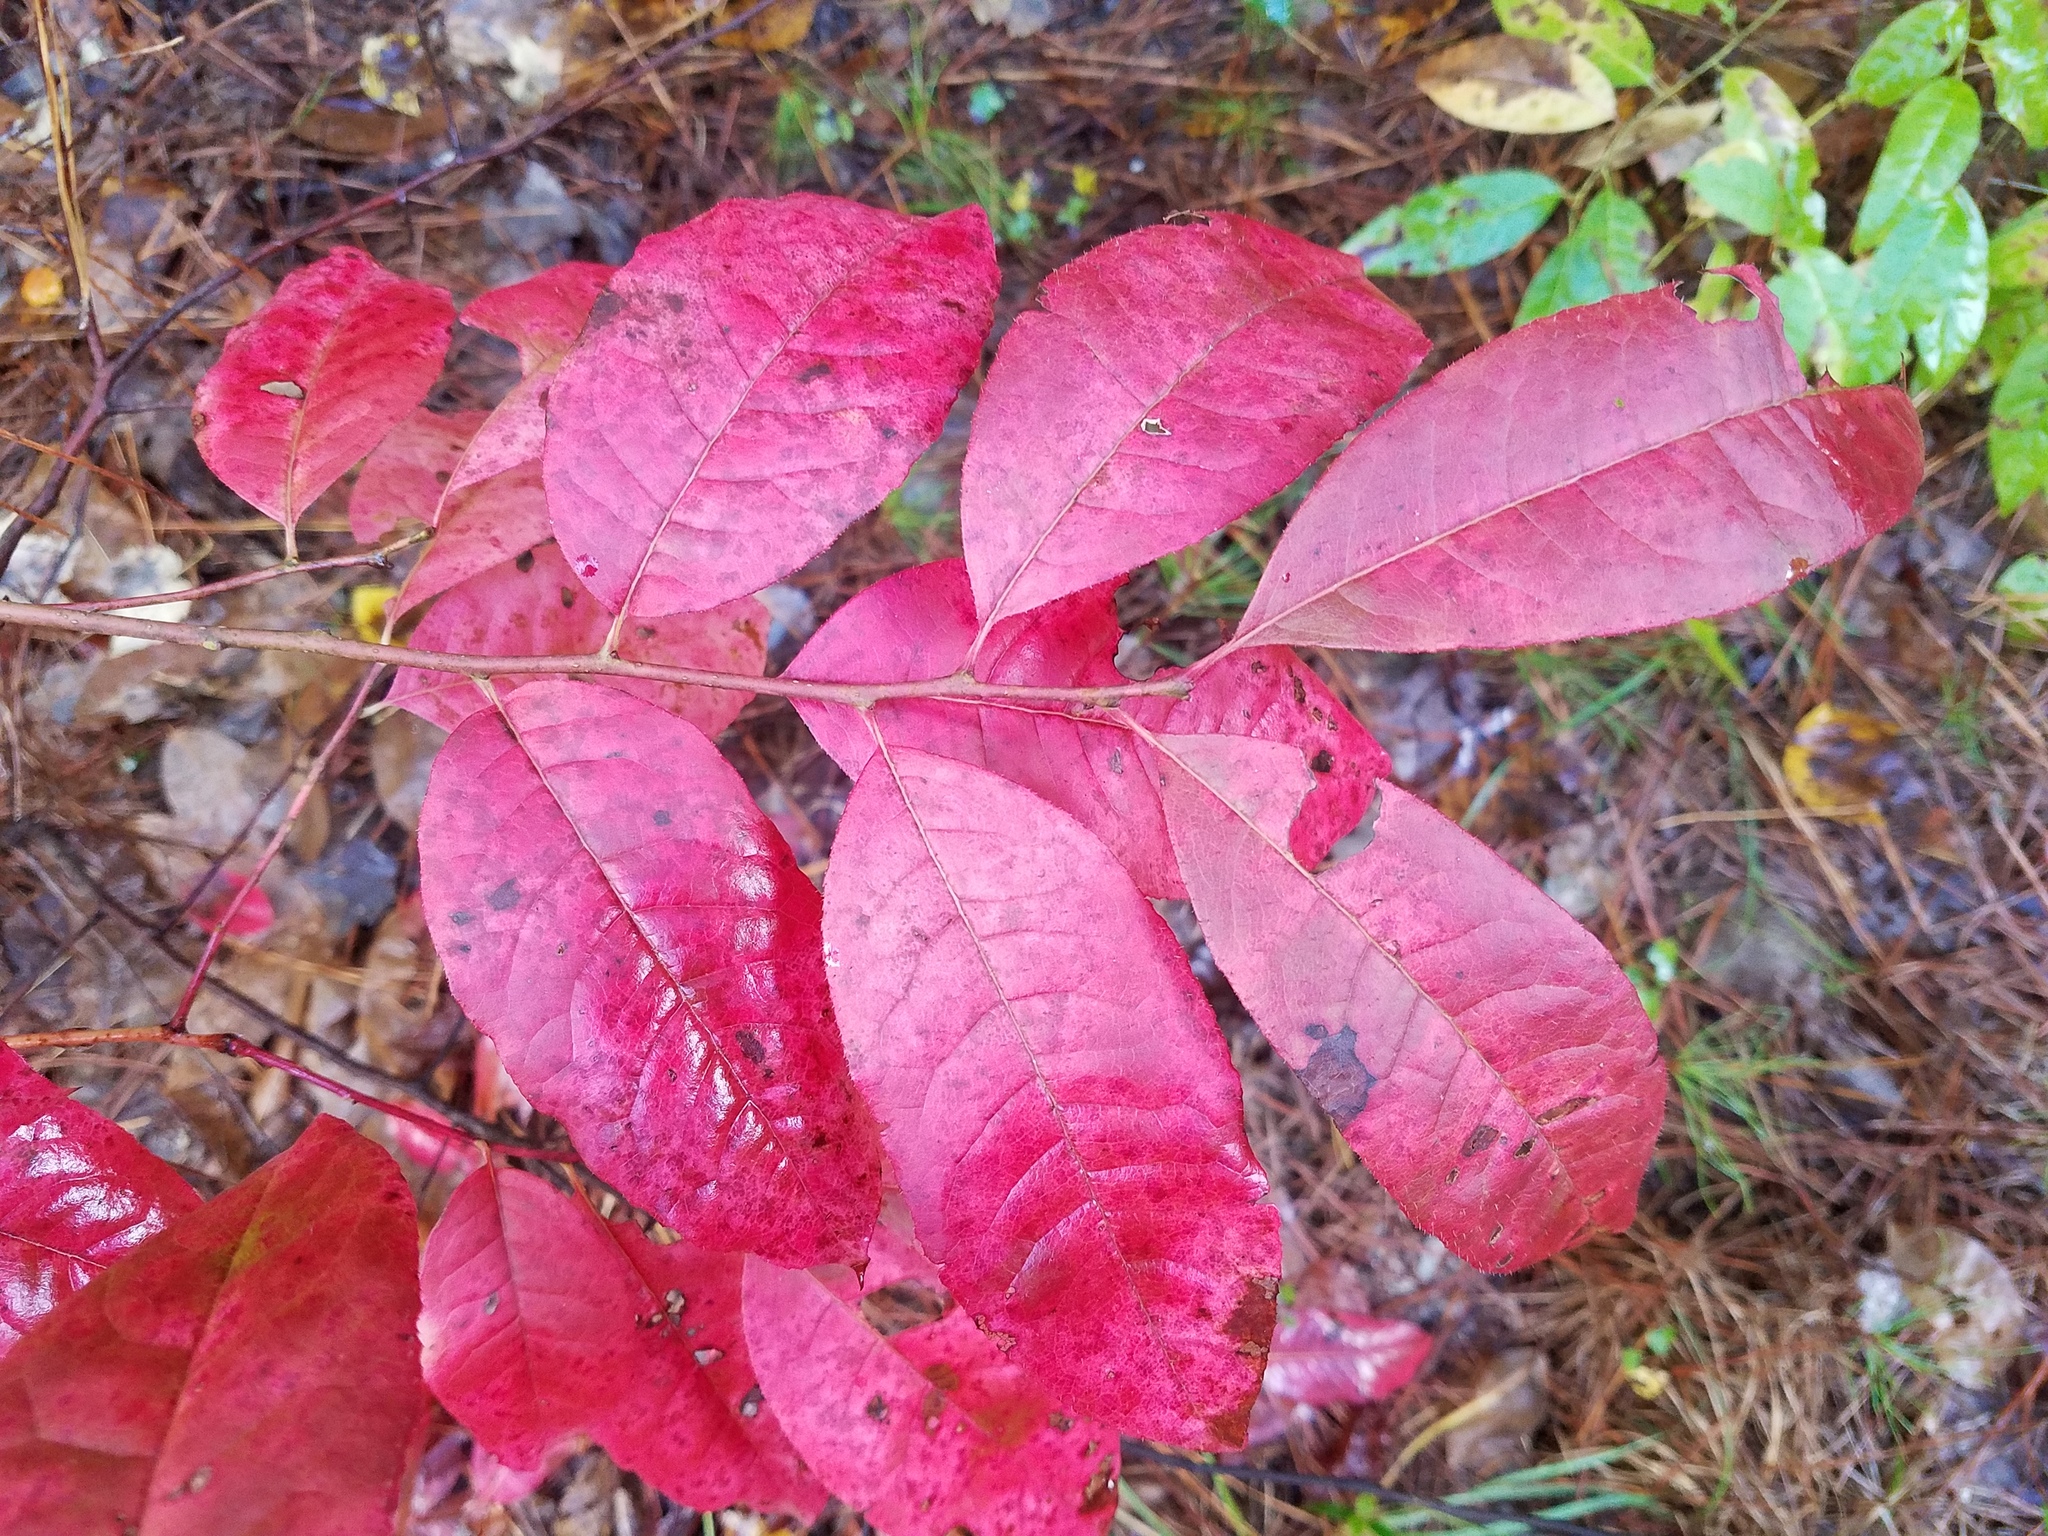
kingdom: Plantae
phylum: Tracheophyta
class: Magnoliopsida
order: Ericales
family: Ericaceae
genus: Oxydendrum
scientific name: Oxydendrum arboreum
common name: Sourwood
